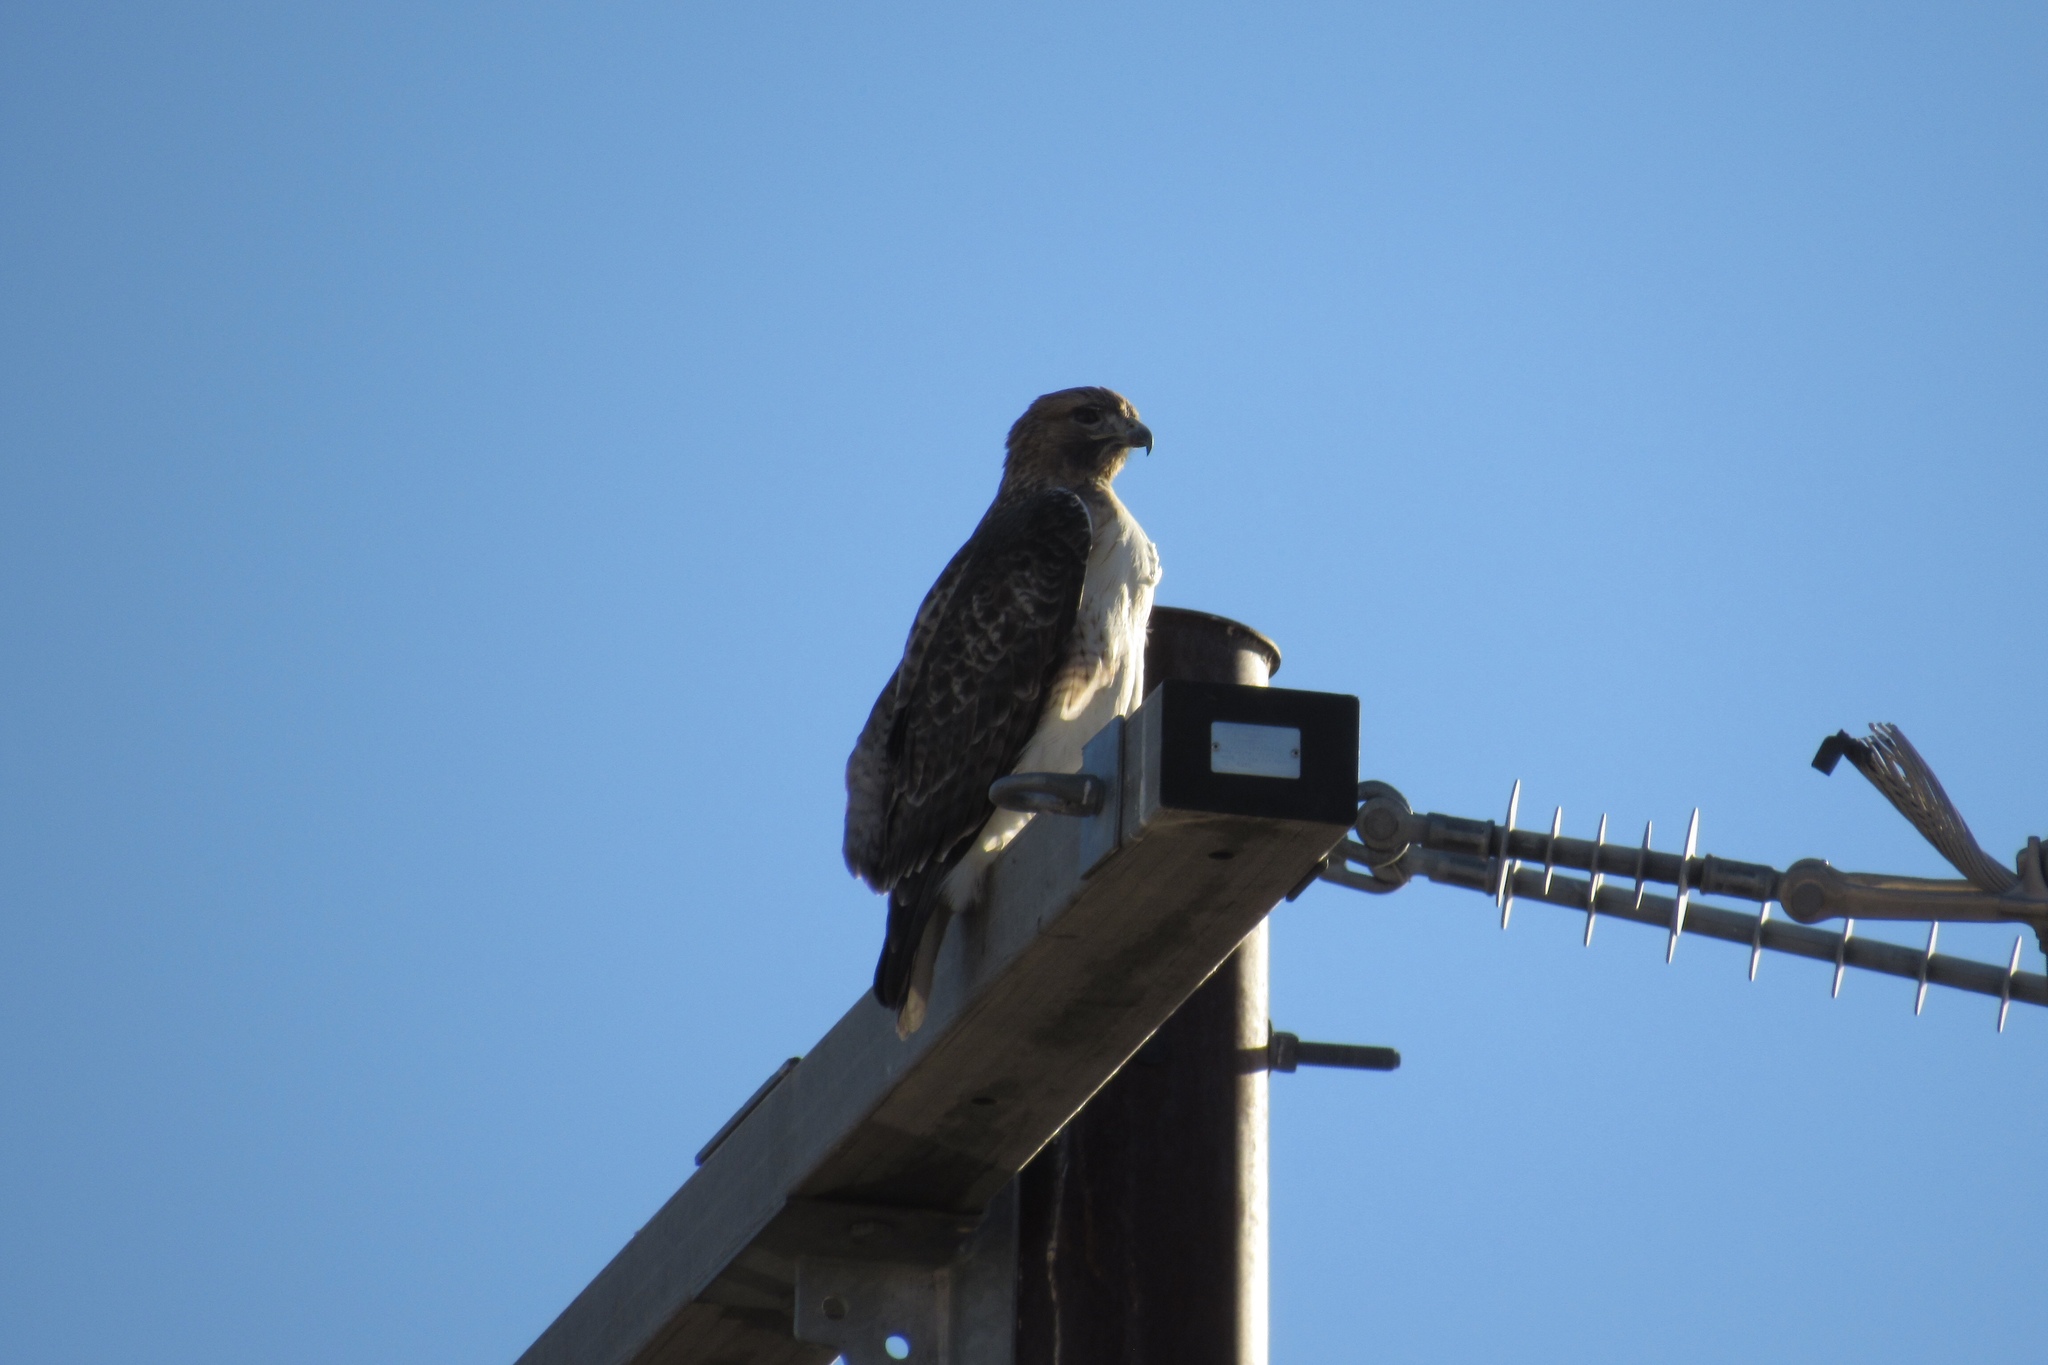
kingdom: Animalia
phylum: Chordata
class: Aves
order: Accipitriformes
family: Accipitridae
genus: Buteo
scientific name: Buteo jamaicensis
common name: Red-tailed hawk
